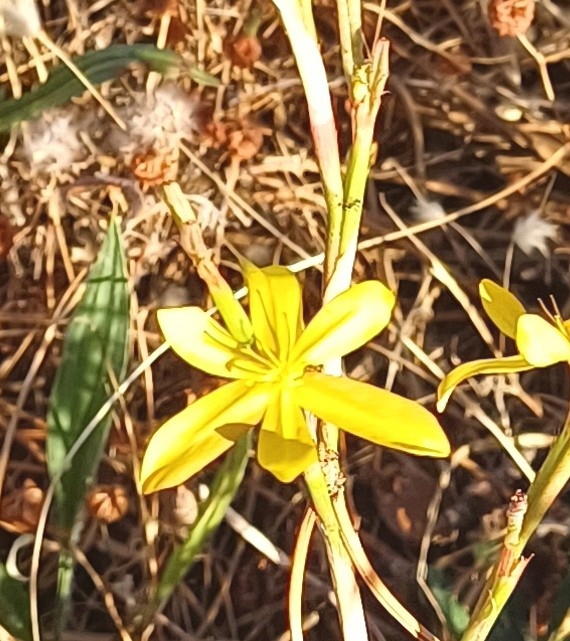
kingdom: Plantae
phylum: Tracheophyta
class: Liliopsida
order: Asparagales
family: Iridaceae
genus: Moraea
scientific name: Moraea lewisiae
